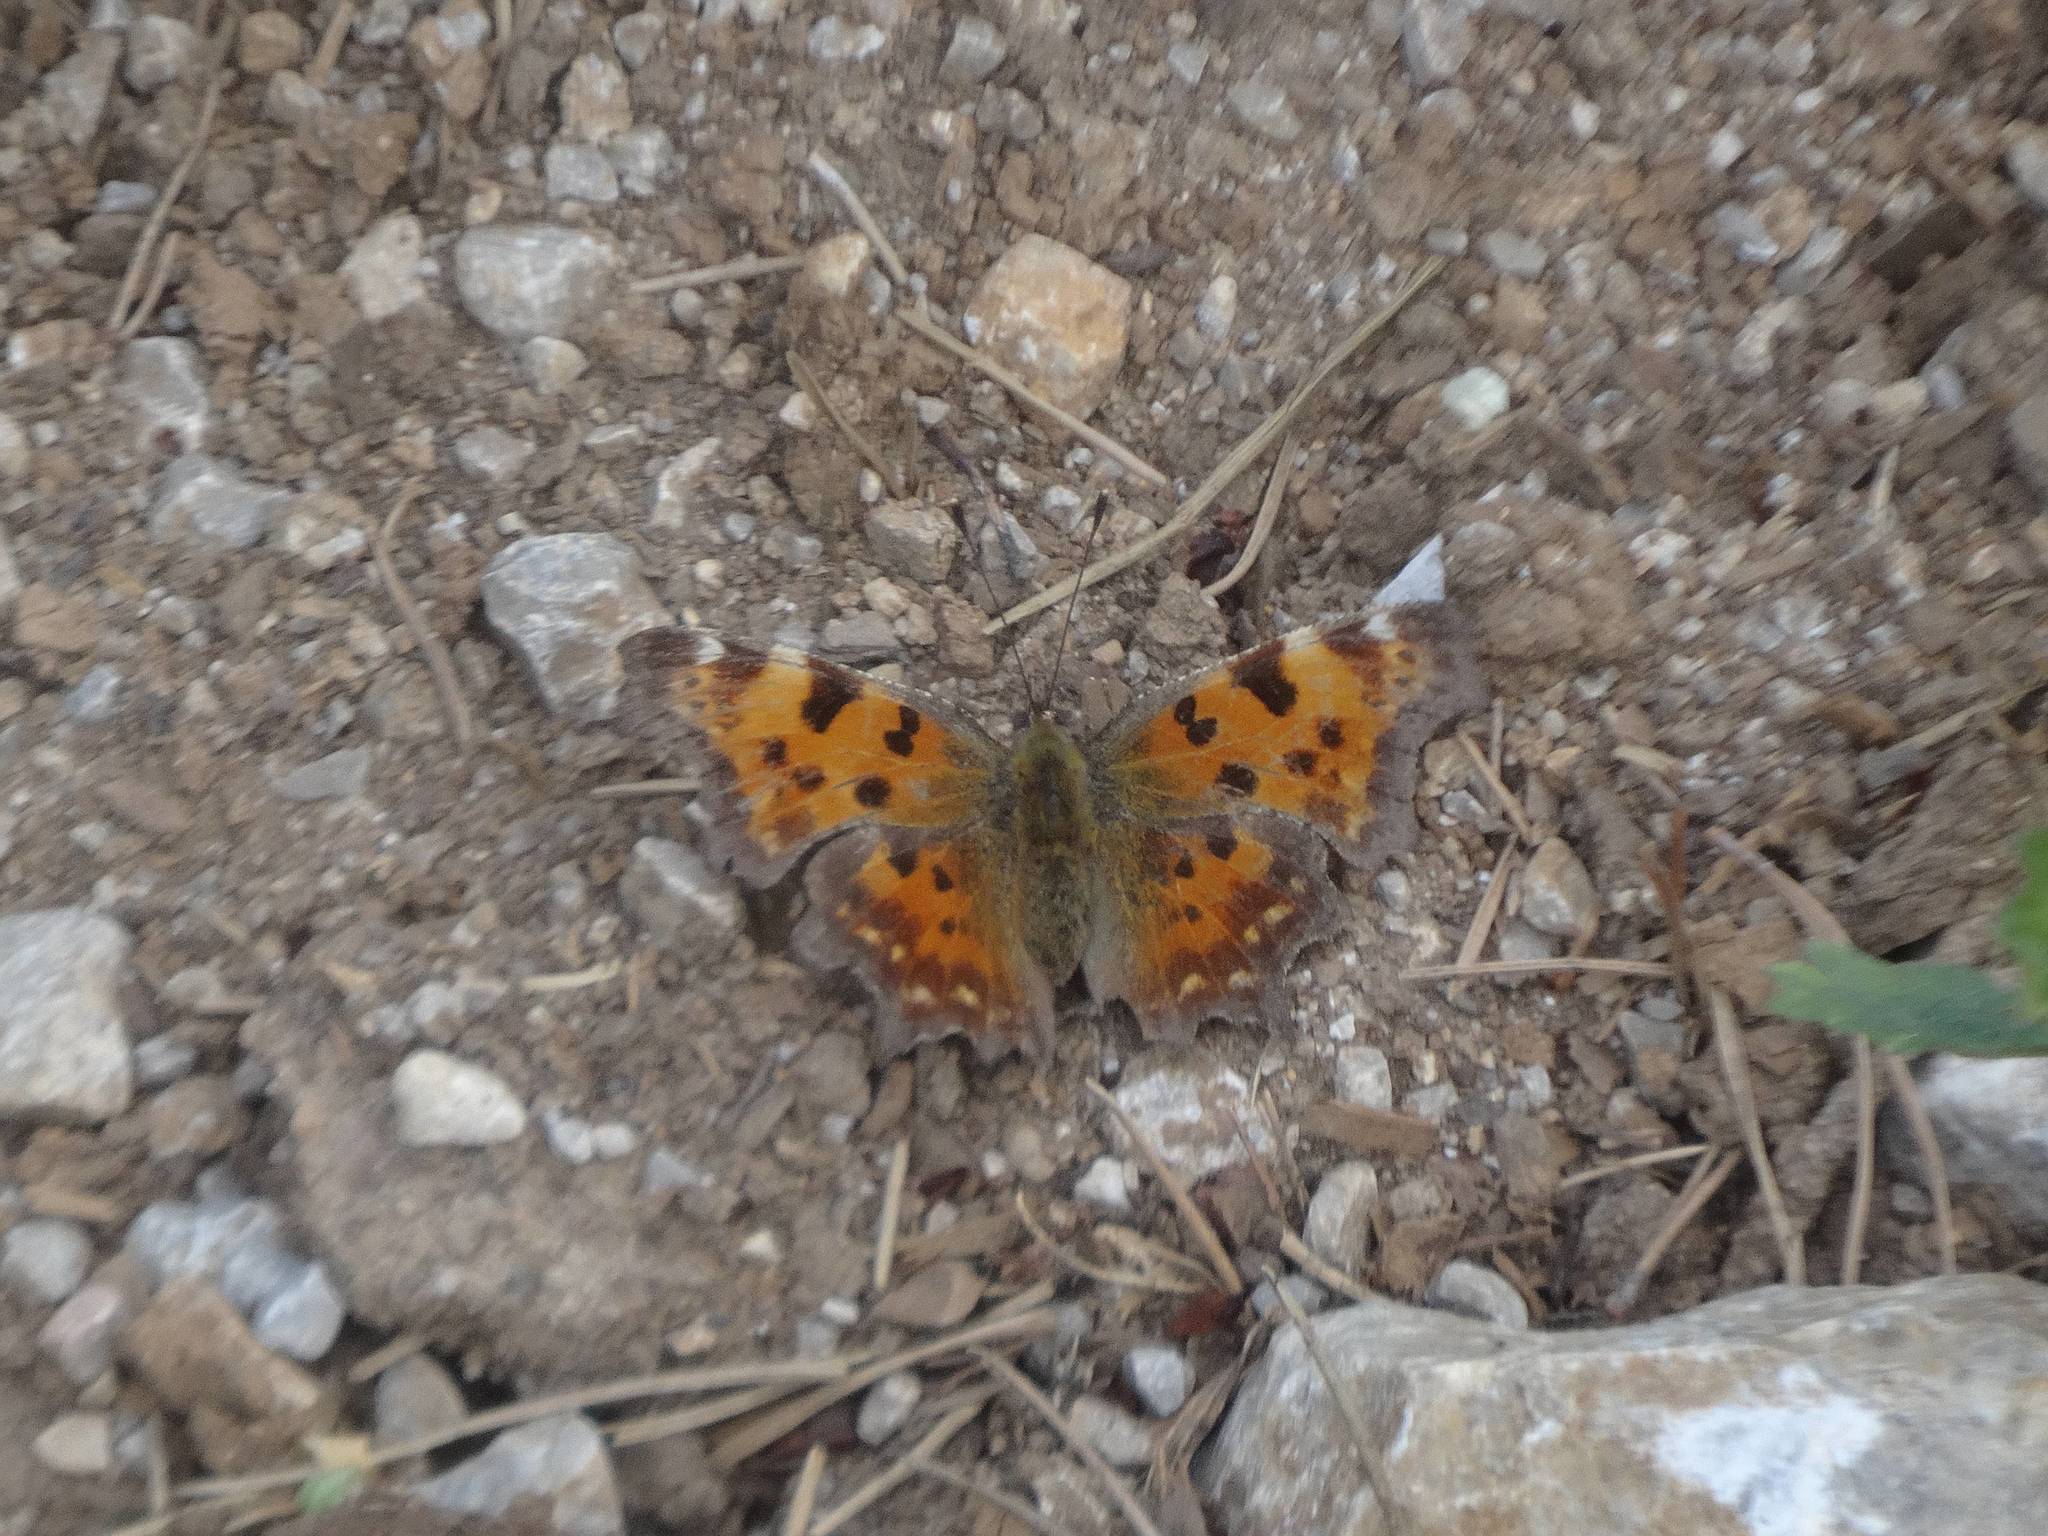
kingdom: Animalia
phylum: Arthropoda
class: Insecta
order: Lepidoptera
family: Nymphalidae
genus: Polygonia
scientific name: Polygonia c-album
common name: Comma
